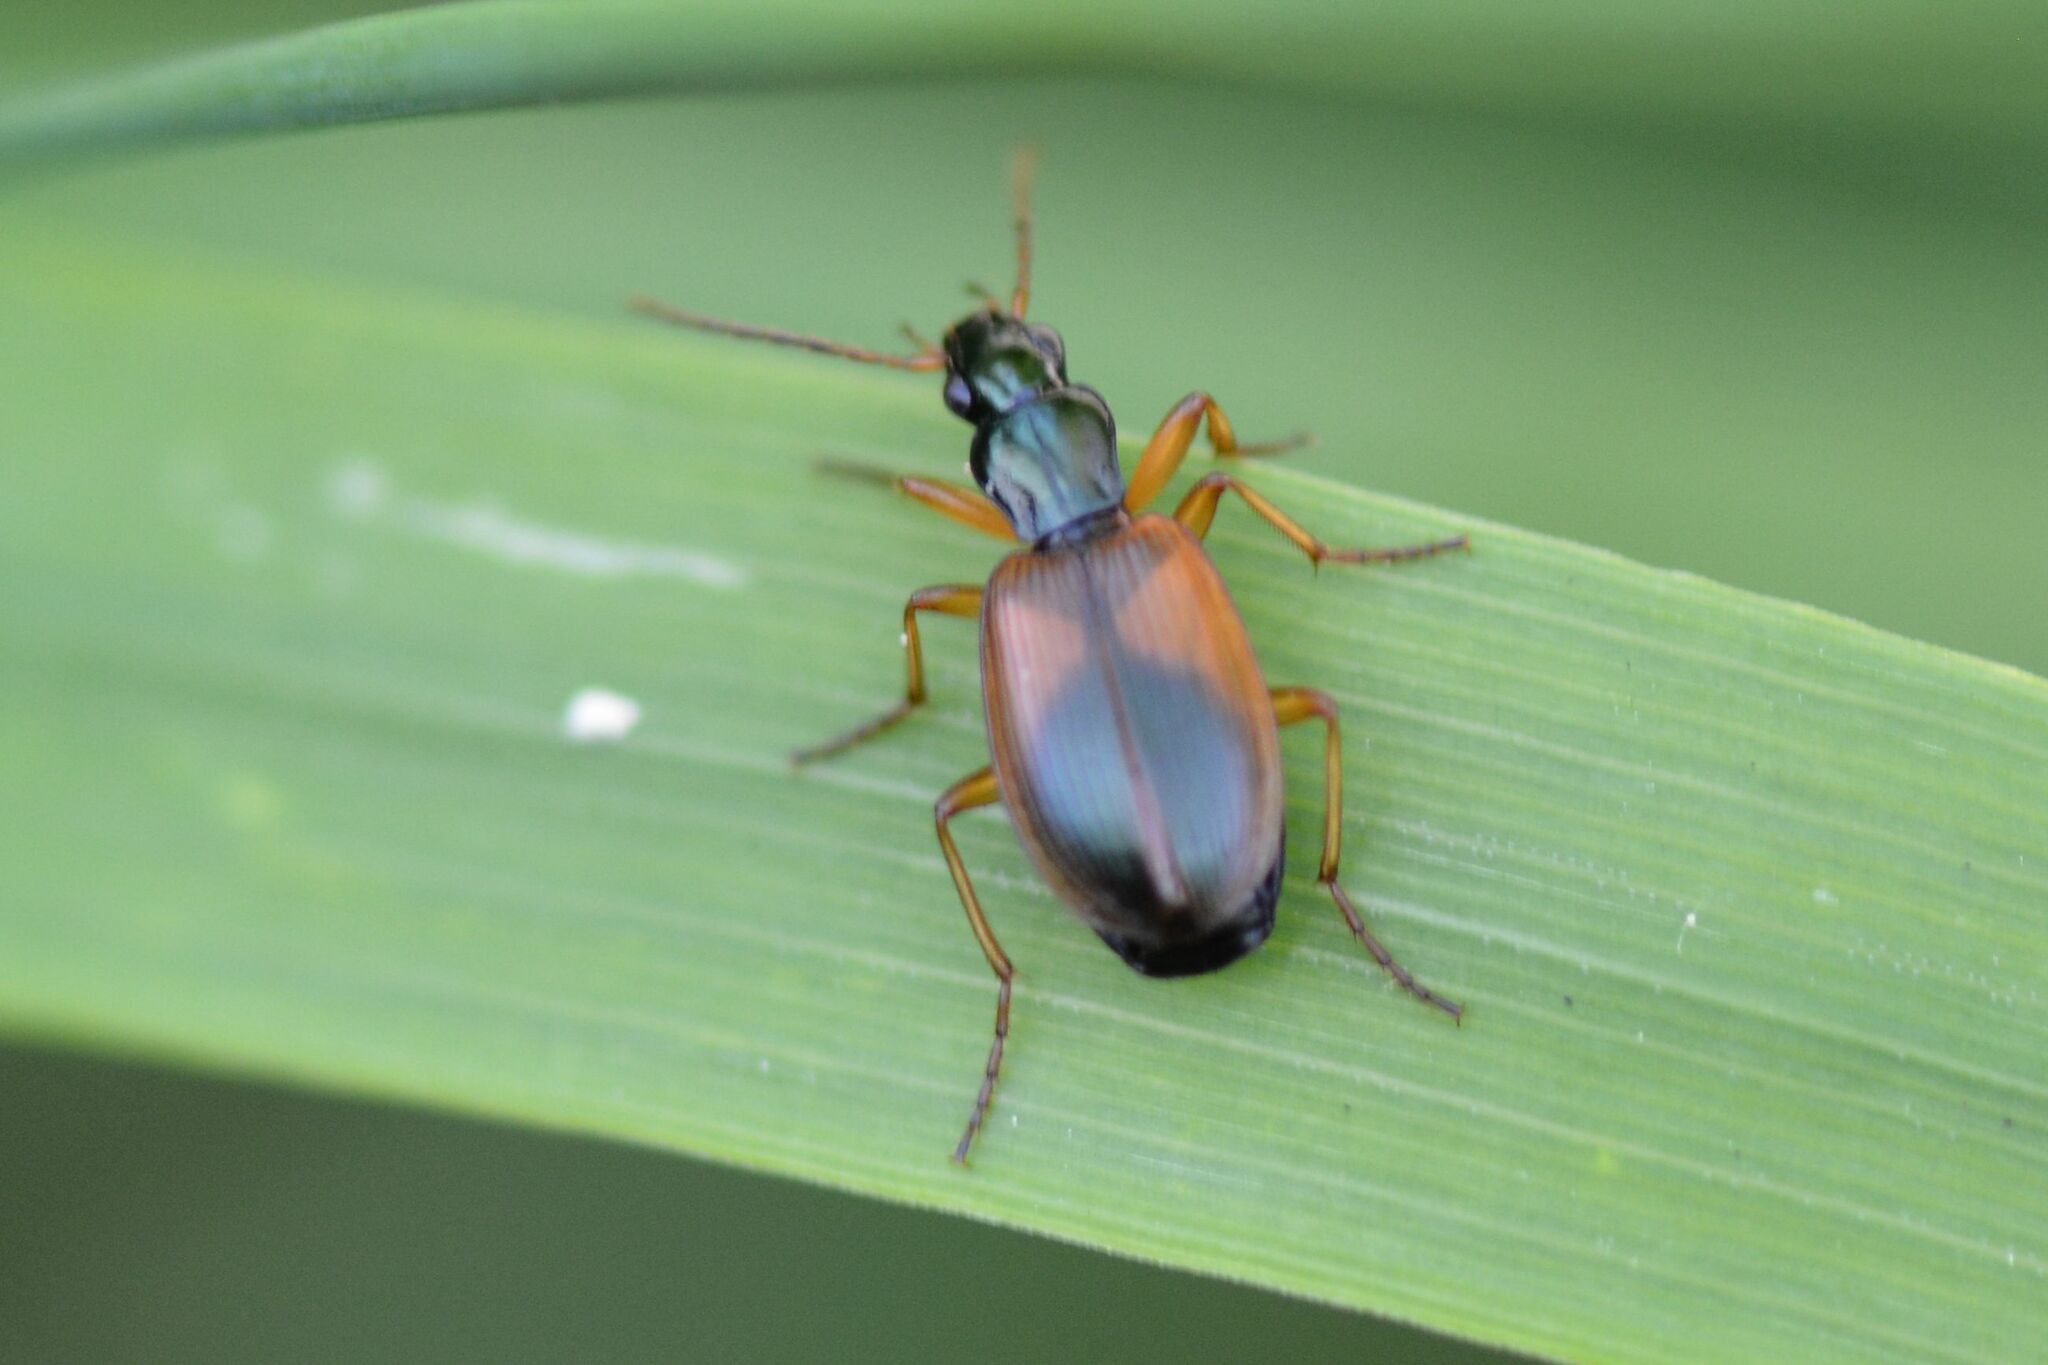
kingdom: Animalia
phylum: Arthropoda
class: Insecta
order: Coleoptera
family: Carabidae
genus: Anchomenus
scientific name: Anchomenus dorsalis
